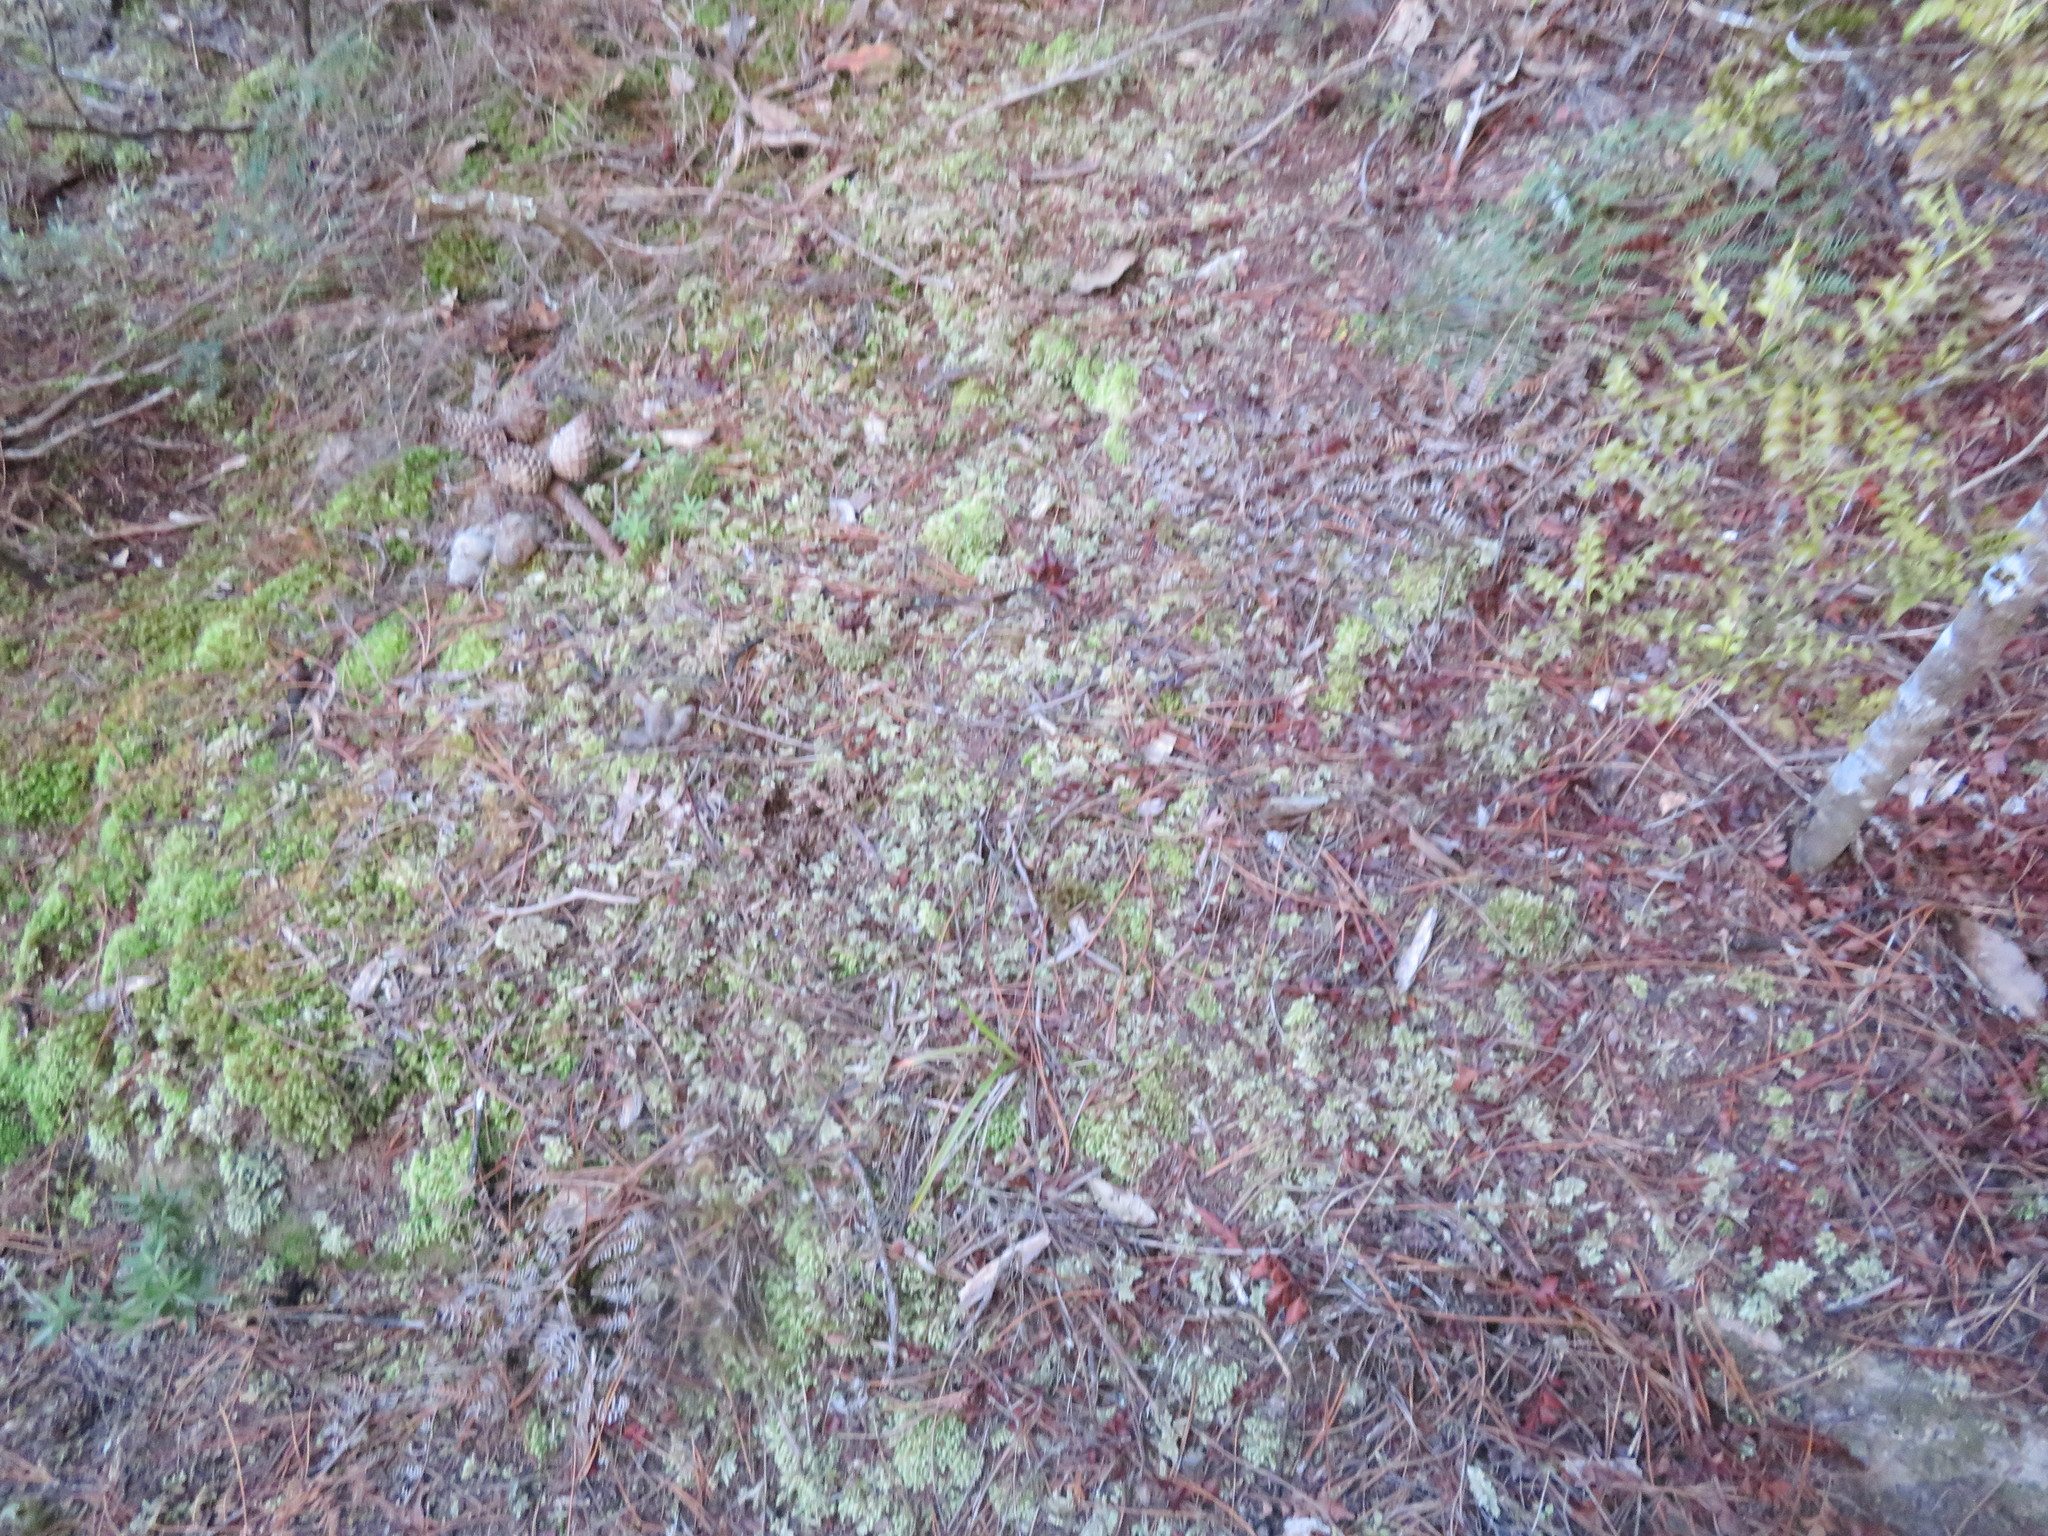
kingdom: Plantae
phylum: Tracheophyta
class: Polypodiopsida
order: Polypodiales
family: Dennstaedtiaceae
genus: Pteridium
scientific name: Pteridium esculentum
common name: Bracken fern
